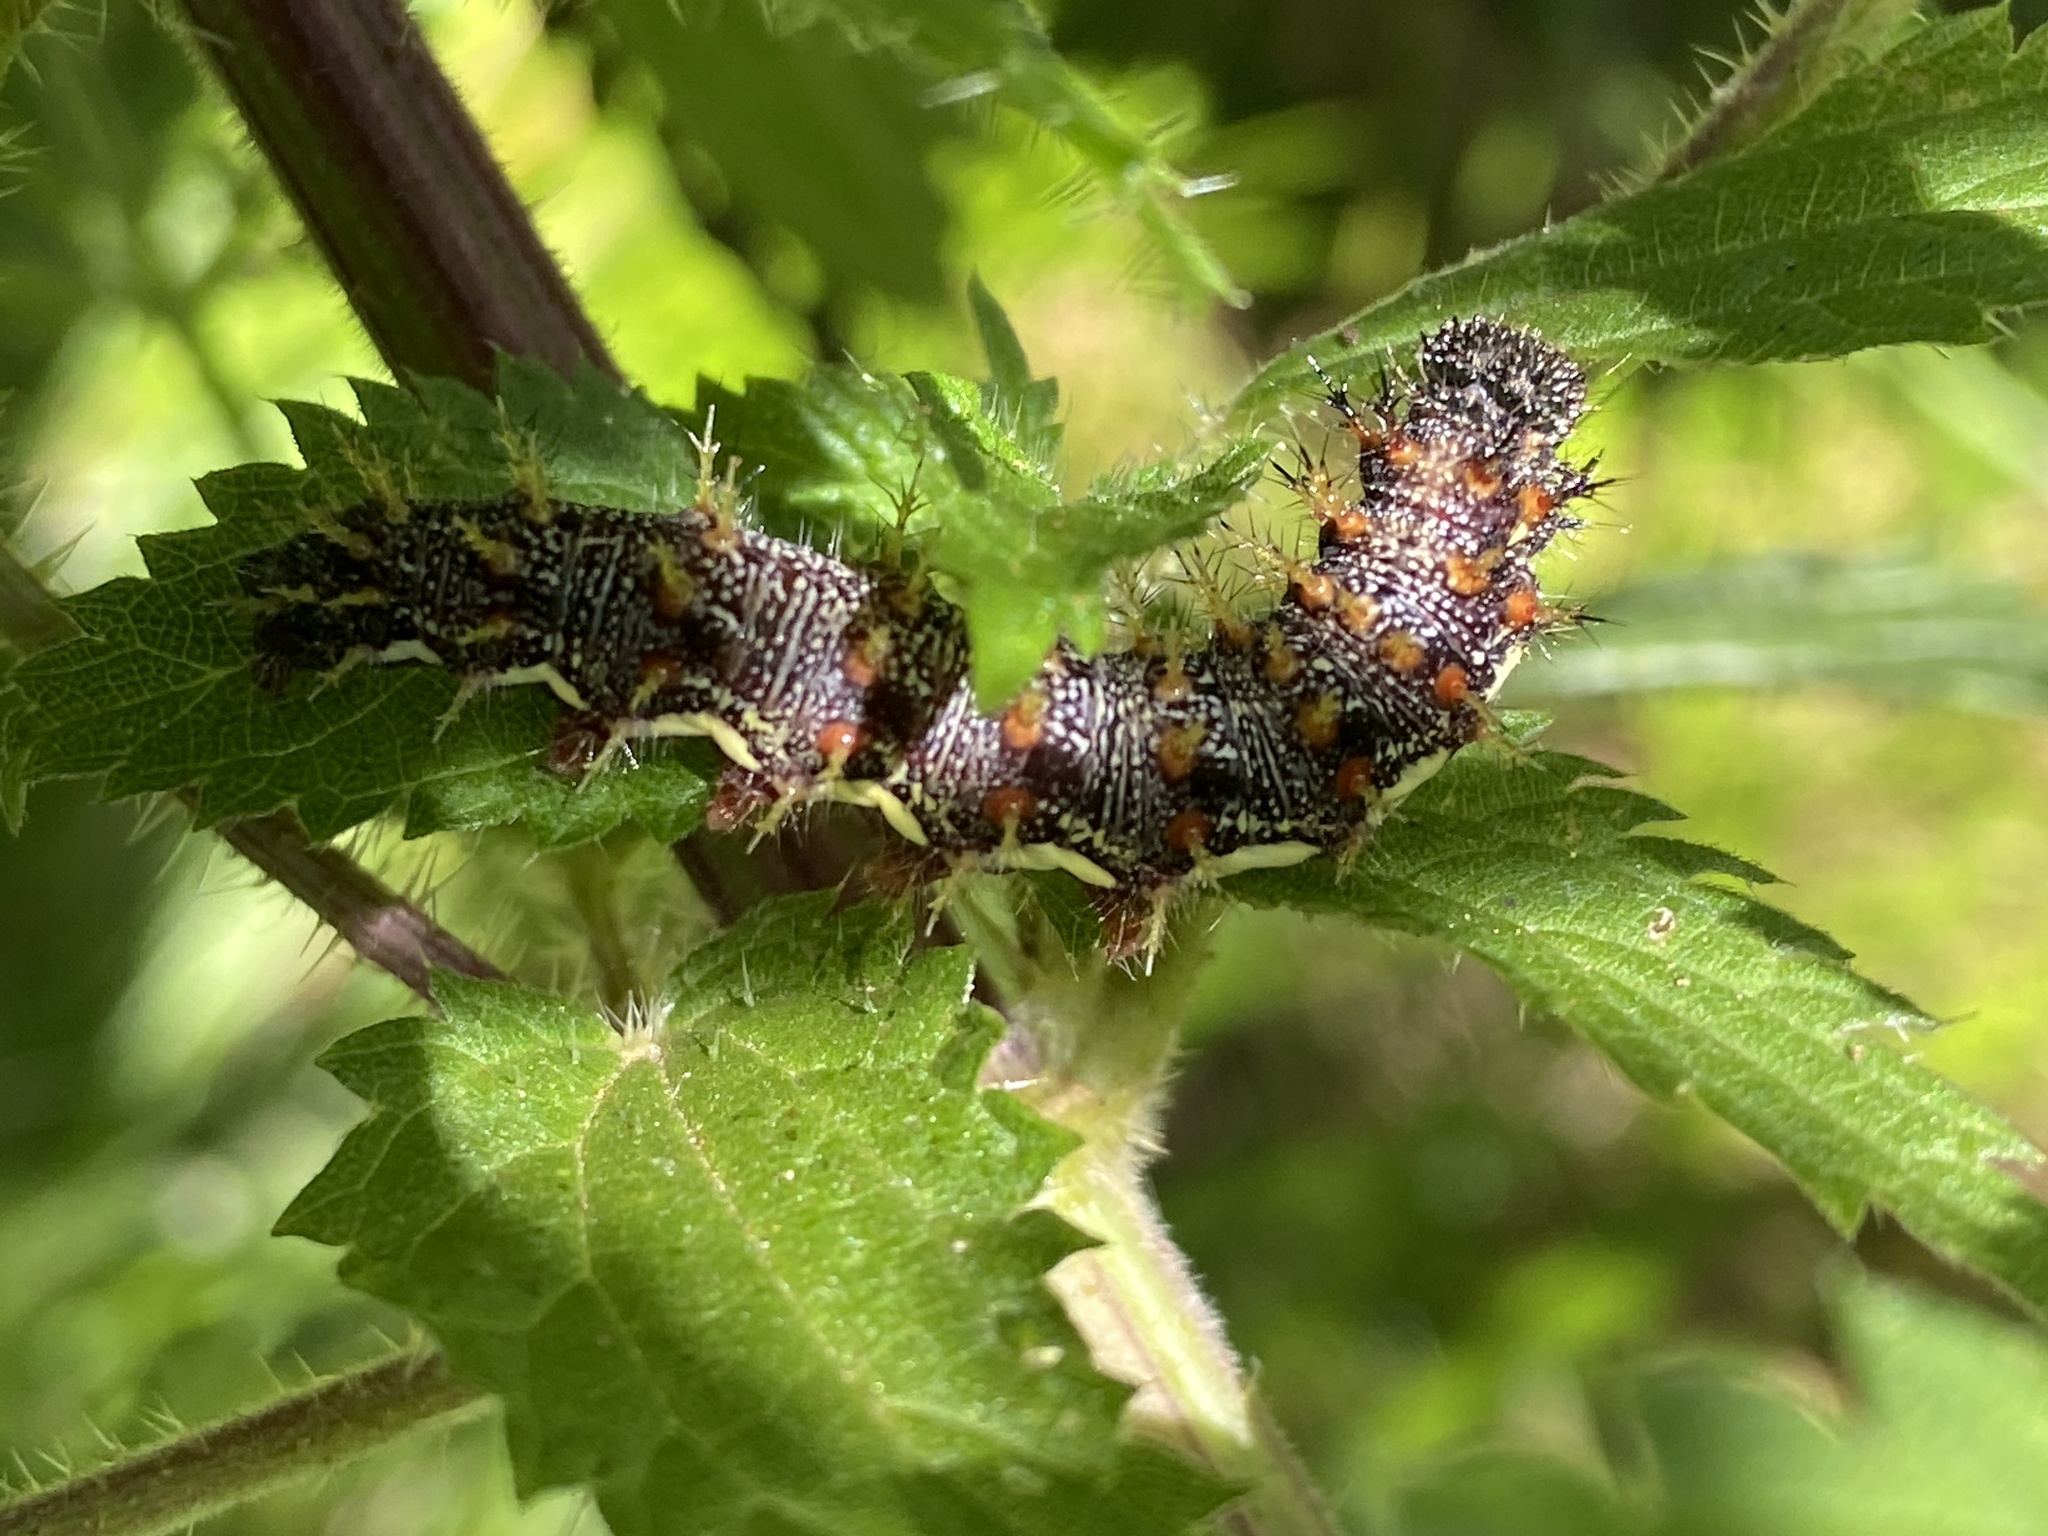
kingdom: Animalia
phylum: Arthropoda
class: Insecta
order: Lepidoptera
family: Nymphalidae
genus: Vanessa
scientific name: Vanessa atalanta
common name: Red admiral
